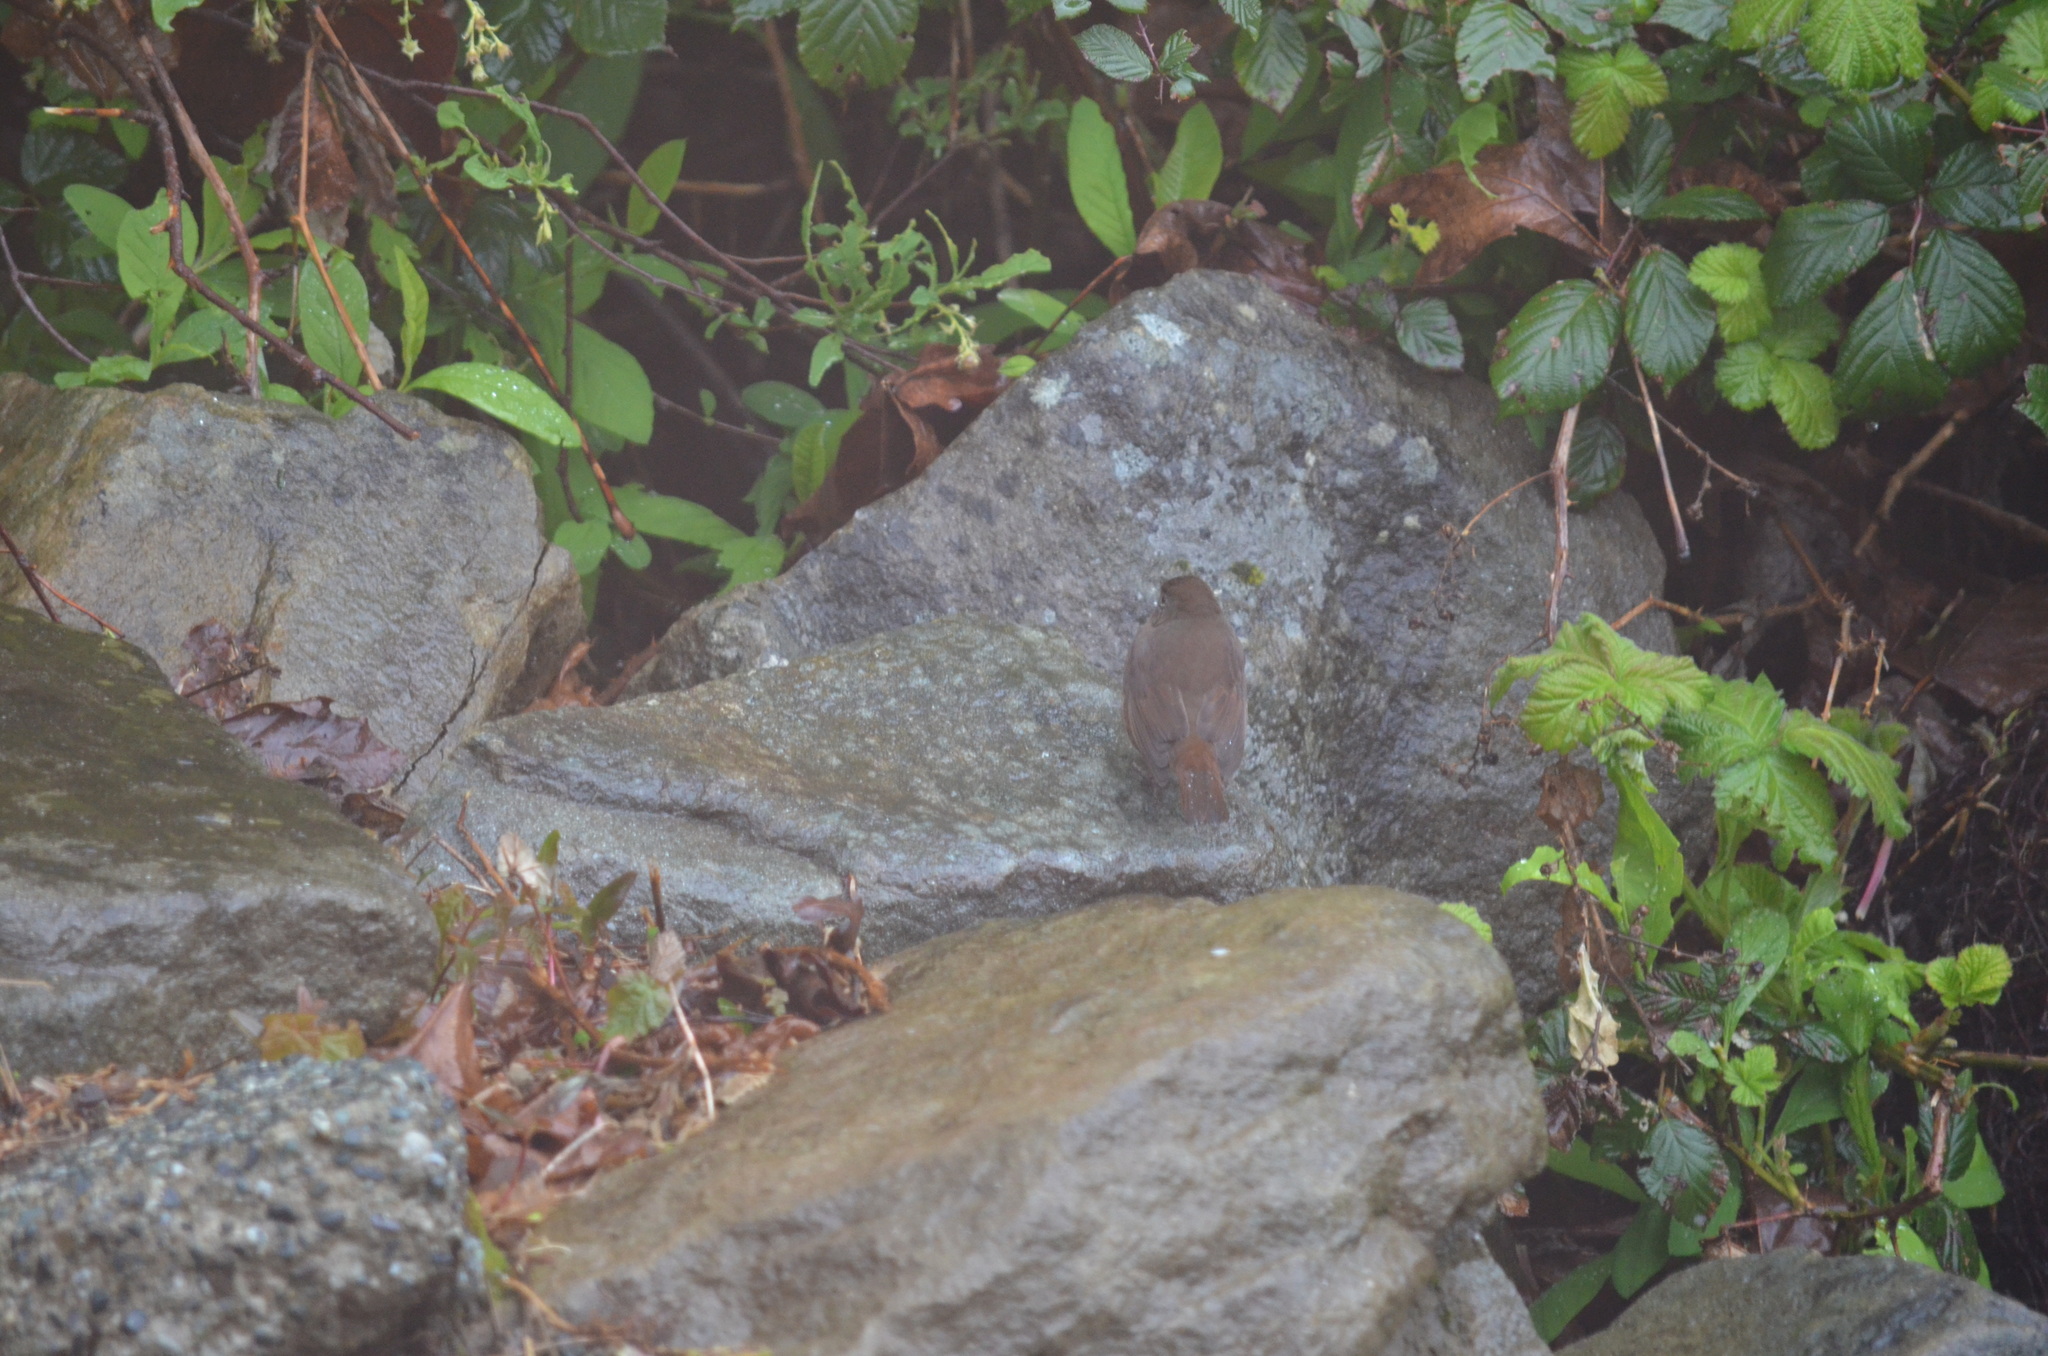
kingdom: Animalia
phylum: Chordata
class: Aves
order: Passeriformes
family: Passerellidae
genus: Passerella
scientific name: Passerella iliaca
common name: Fox sparrow
